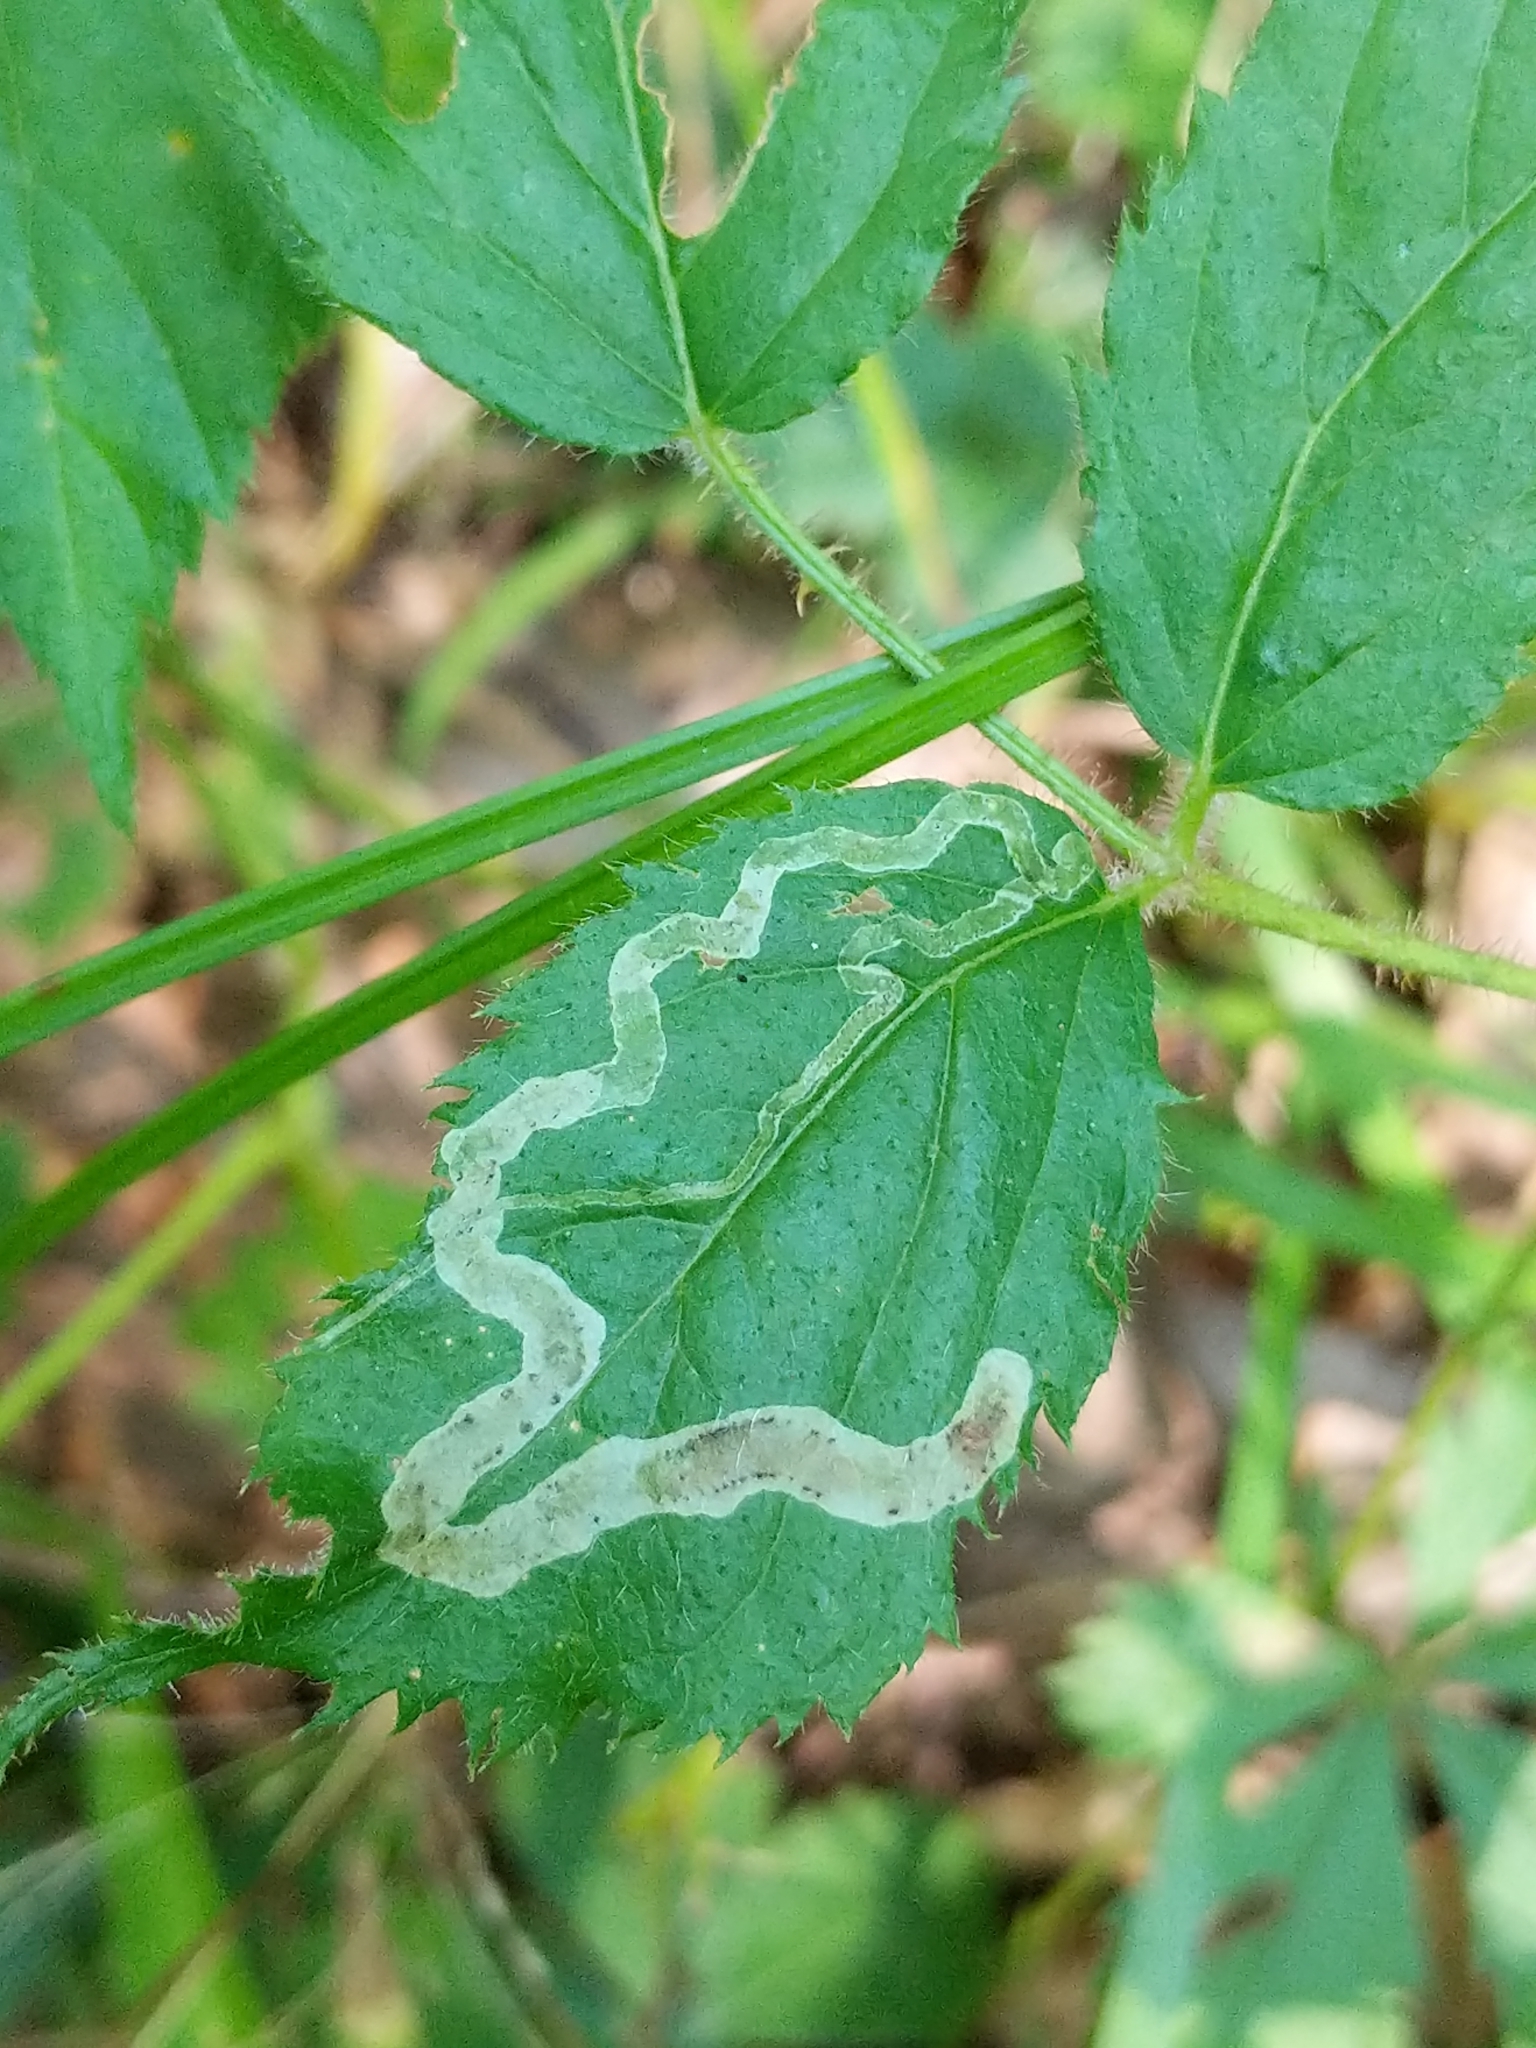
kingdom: Animalia
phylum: Arthropoda
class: Insecta
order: Diptera
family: Agromyzidae
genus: Agromyza
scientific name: Agromyza vockerothi
